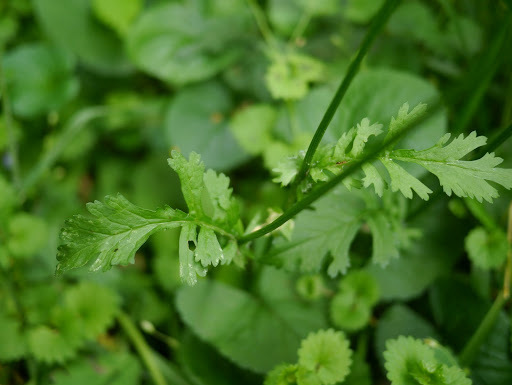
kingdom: Plantae
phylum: Tracheophyta
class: Magnoliopsida
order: Asterales
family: Asteraceae
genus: Packera
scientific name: Packera aurea
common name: Golden groundsel
